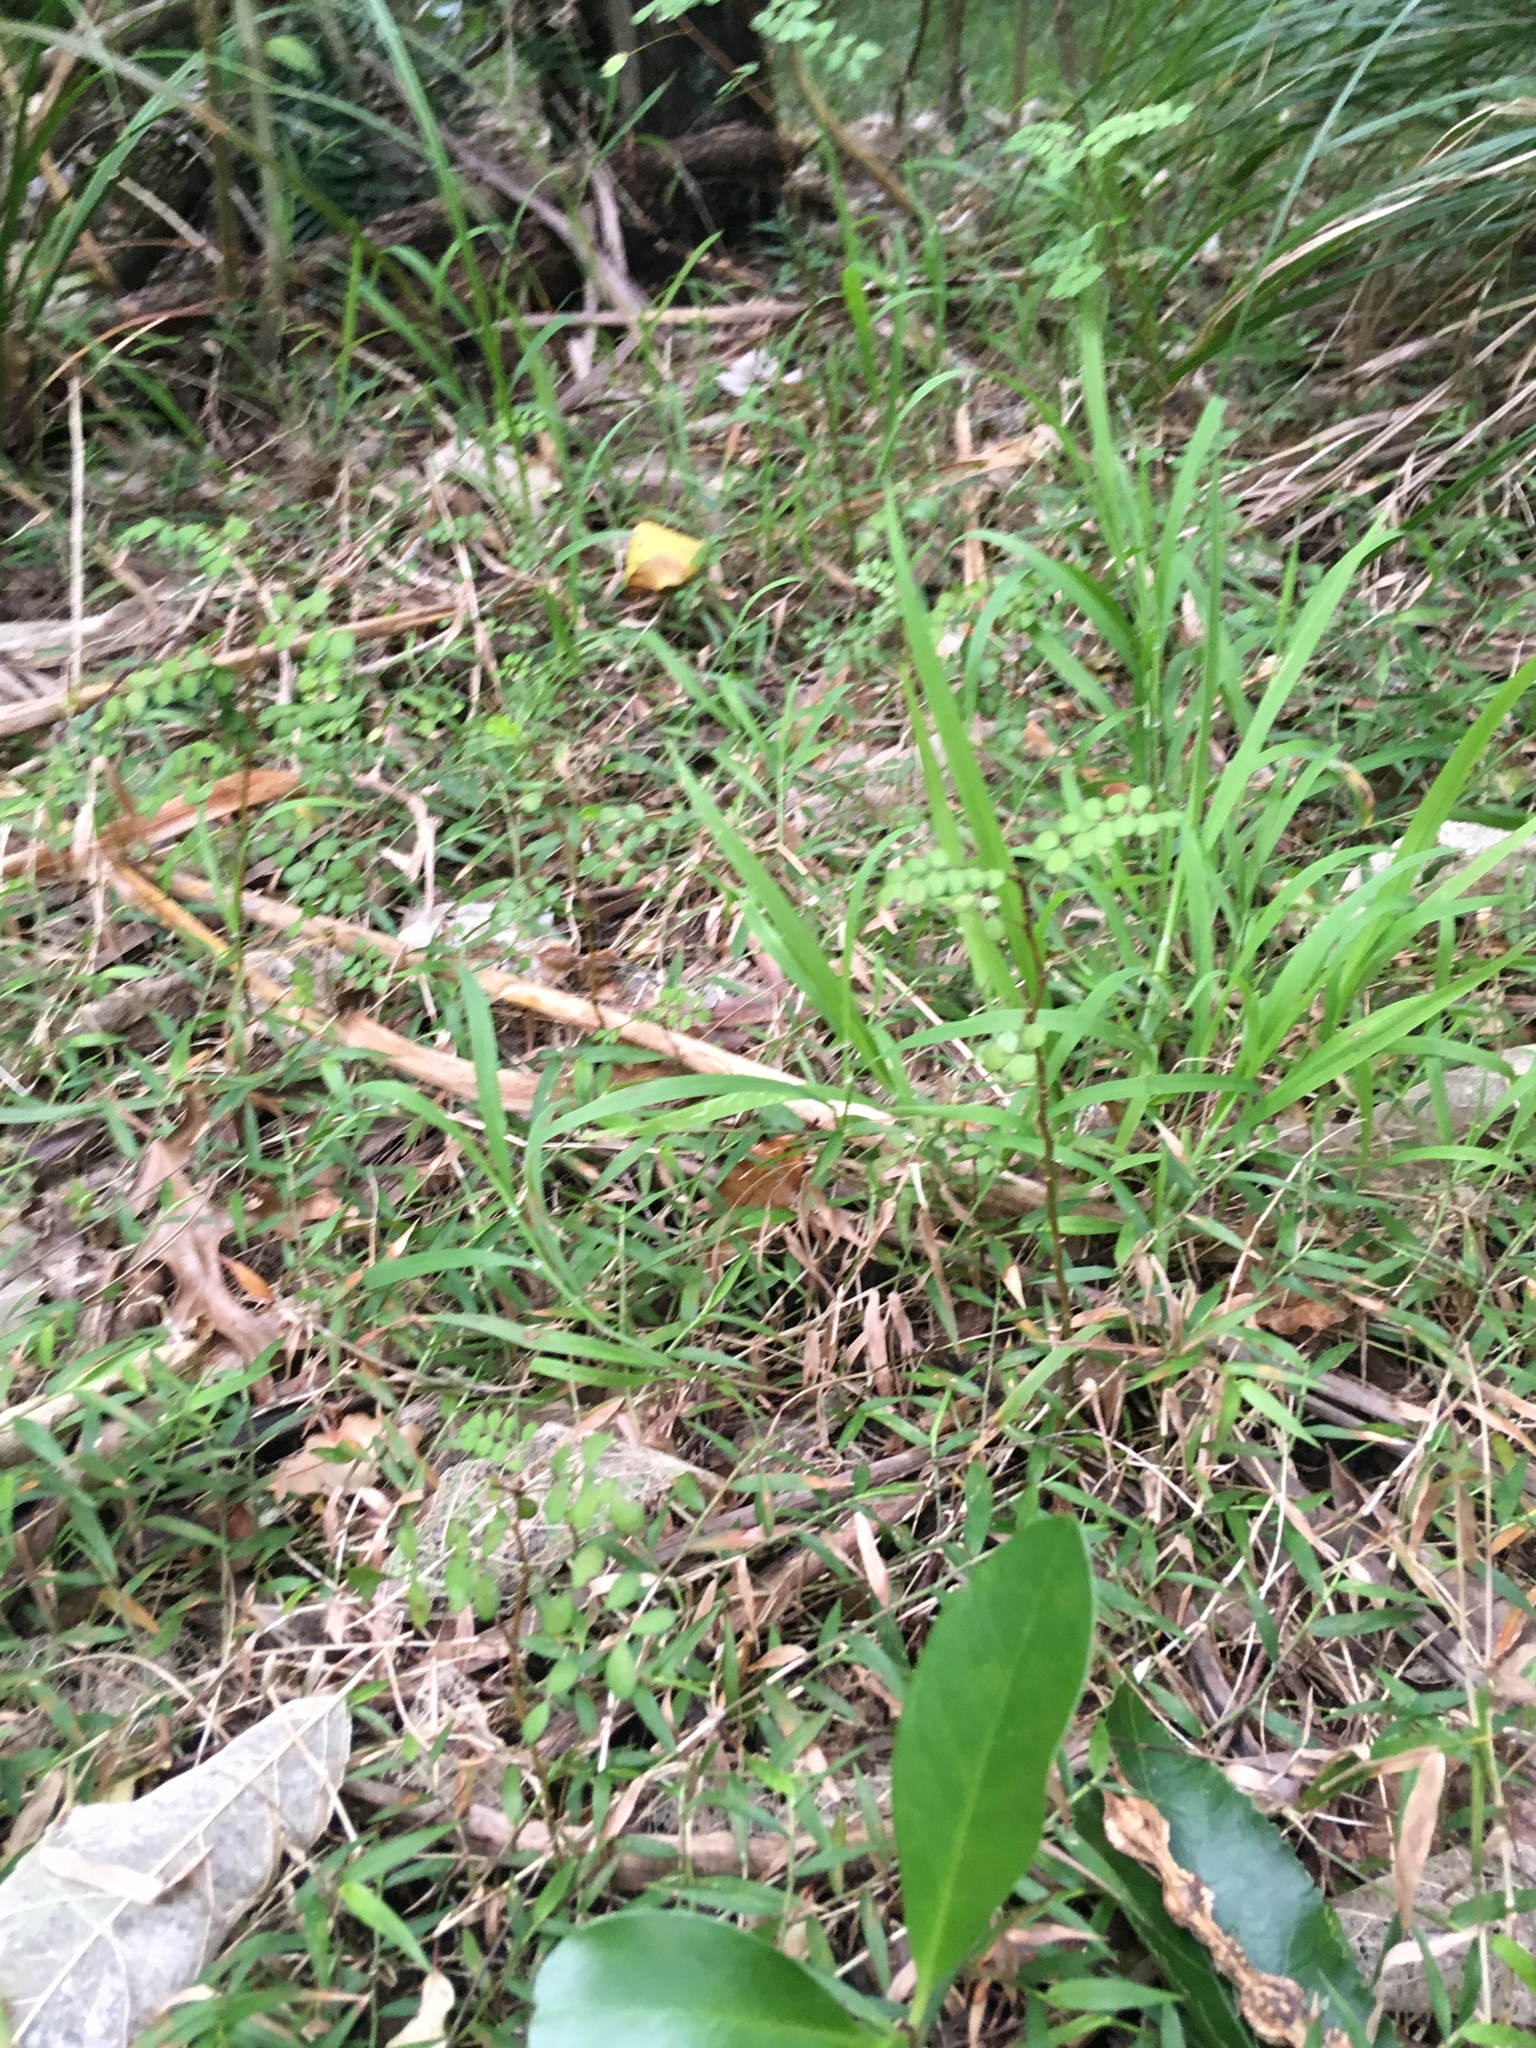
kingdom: Plantae
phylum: Tracheophyta
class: Liliopsida
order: Poales
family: Poaceae
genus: Ehrharta
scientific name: Ehrharta erecta
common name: Panic veldtgrass
